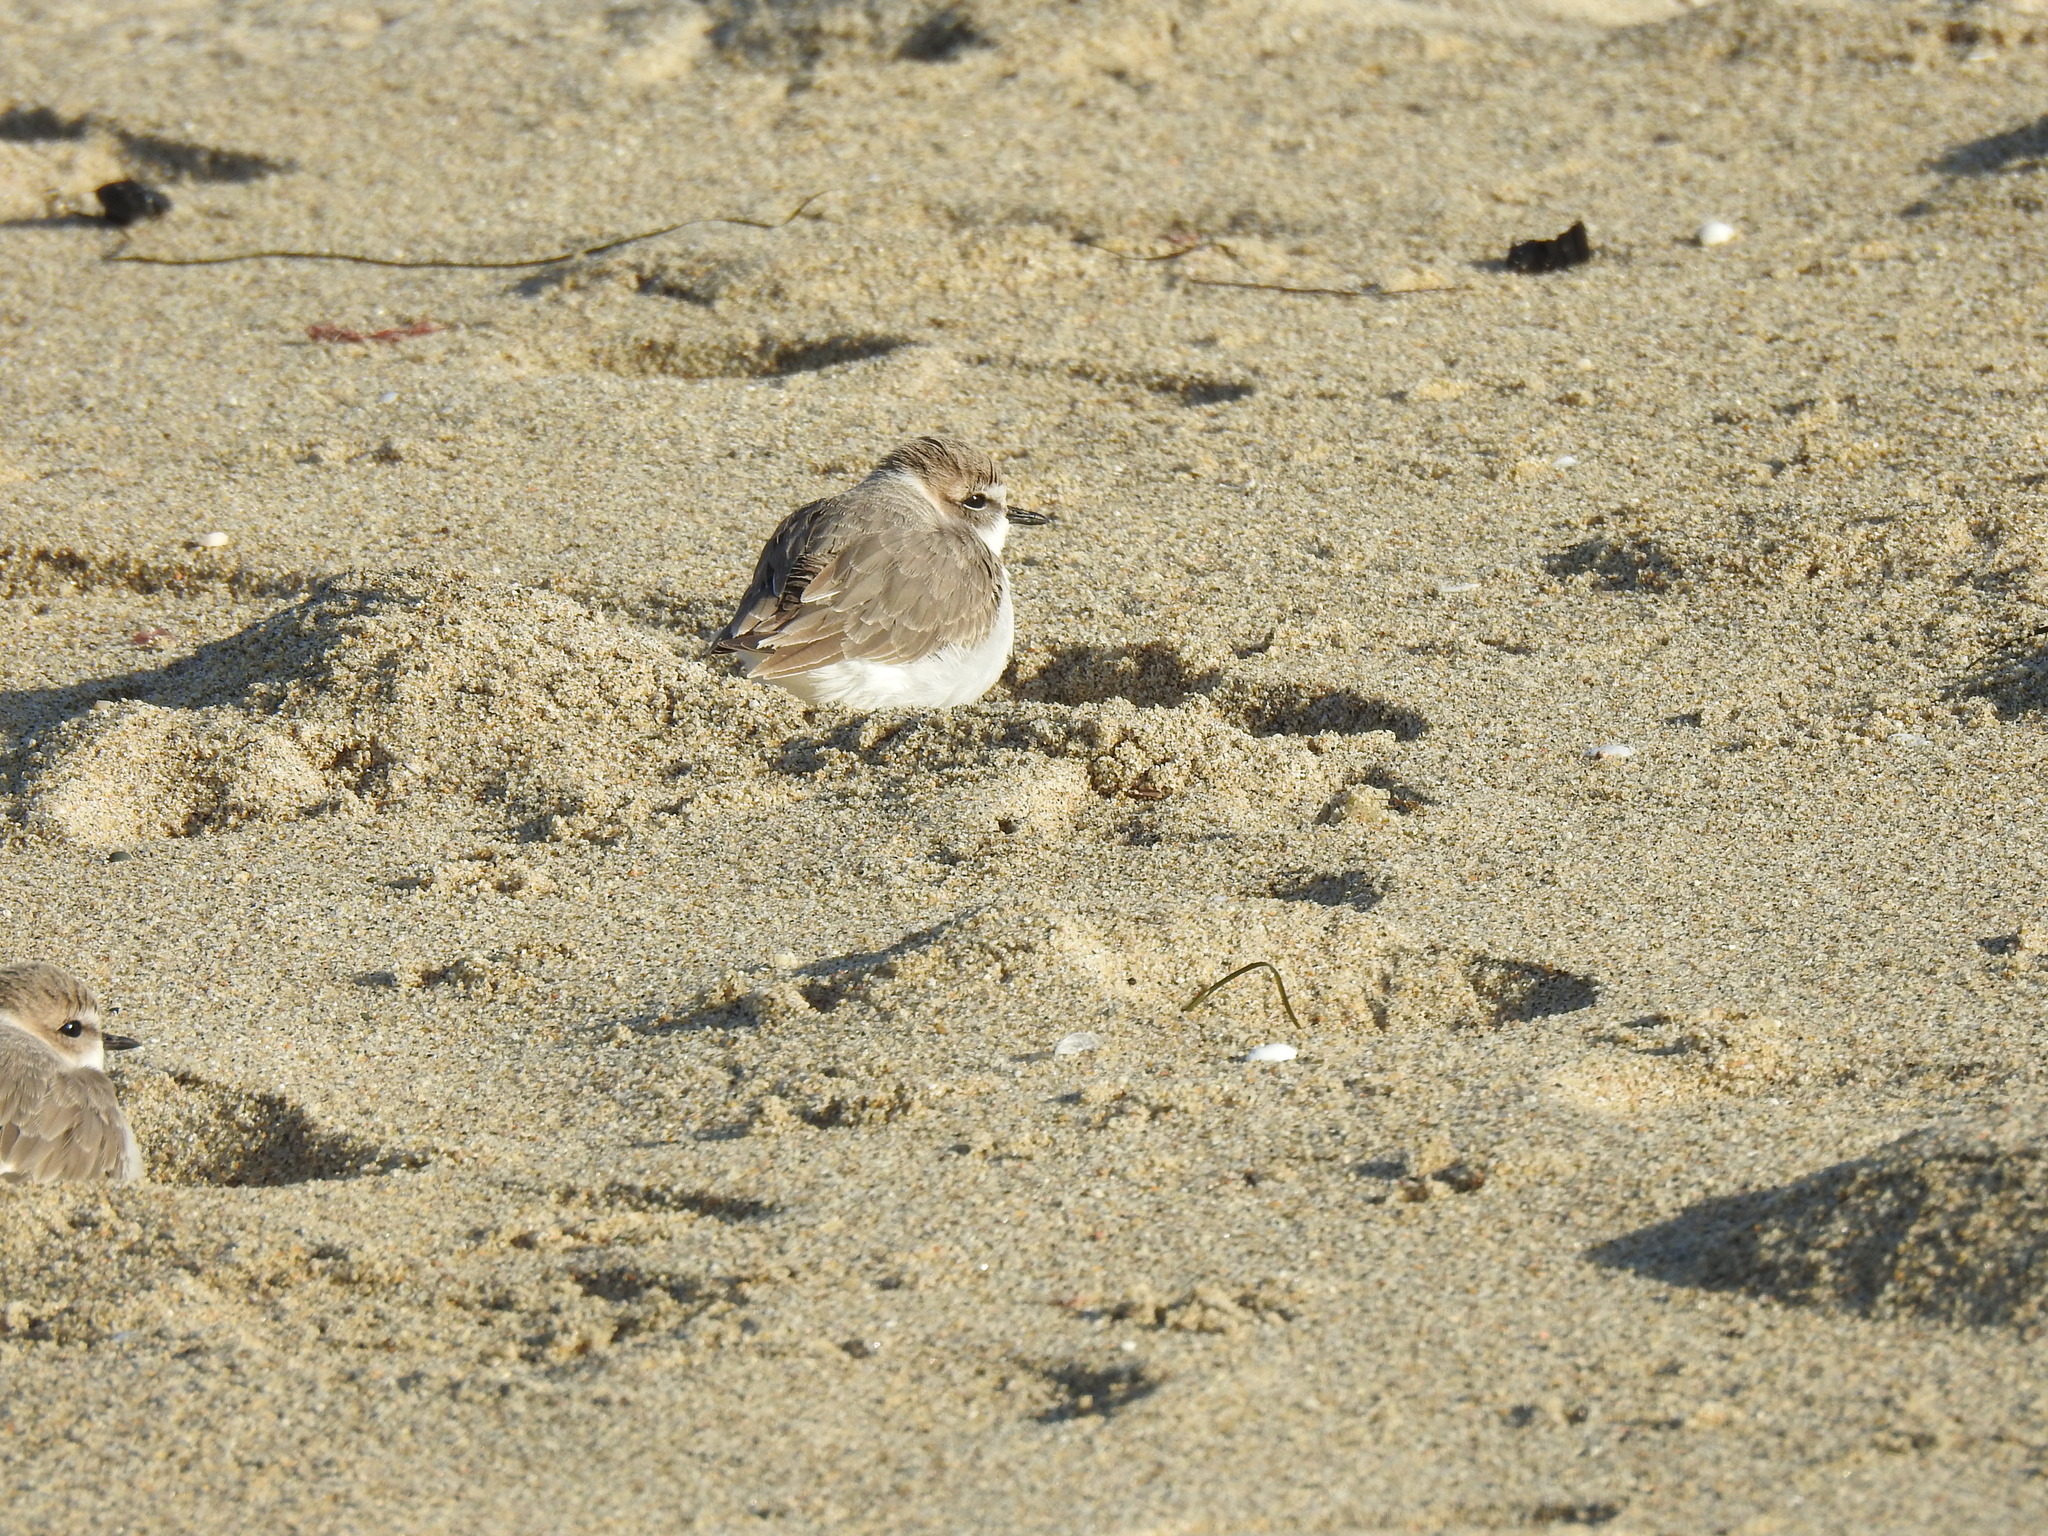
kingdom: Animalia
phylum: Chordata
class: Aves
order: Charadriiformes
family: Charadriidae
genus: Anarhynchus
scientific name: Anarhynchus
